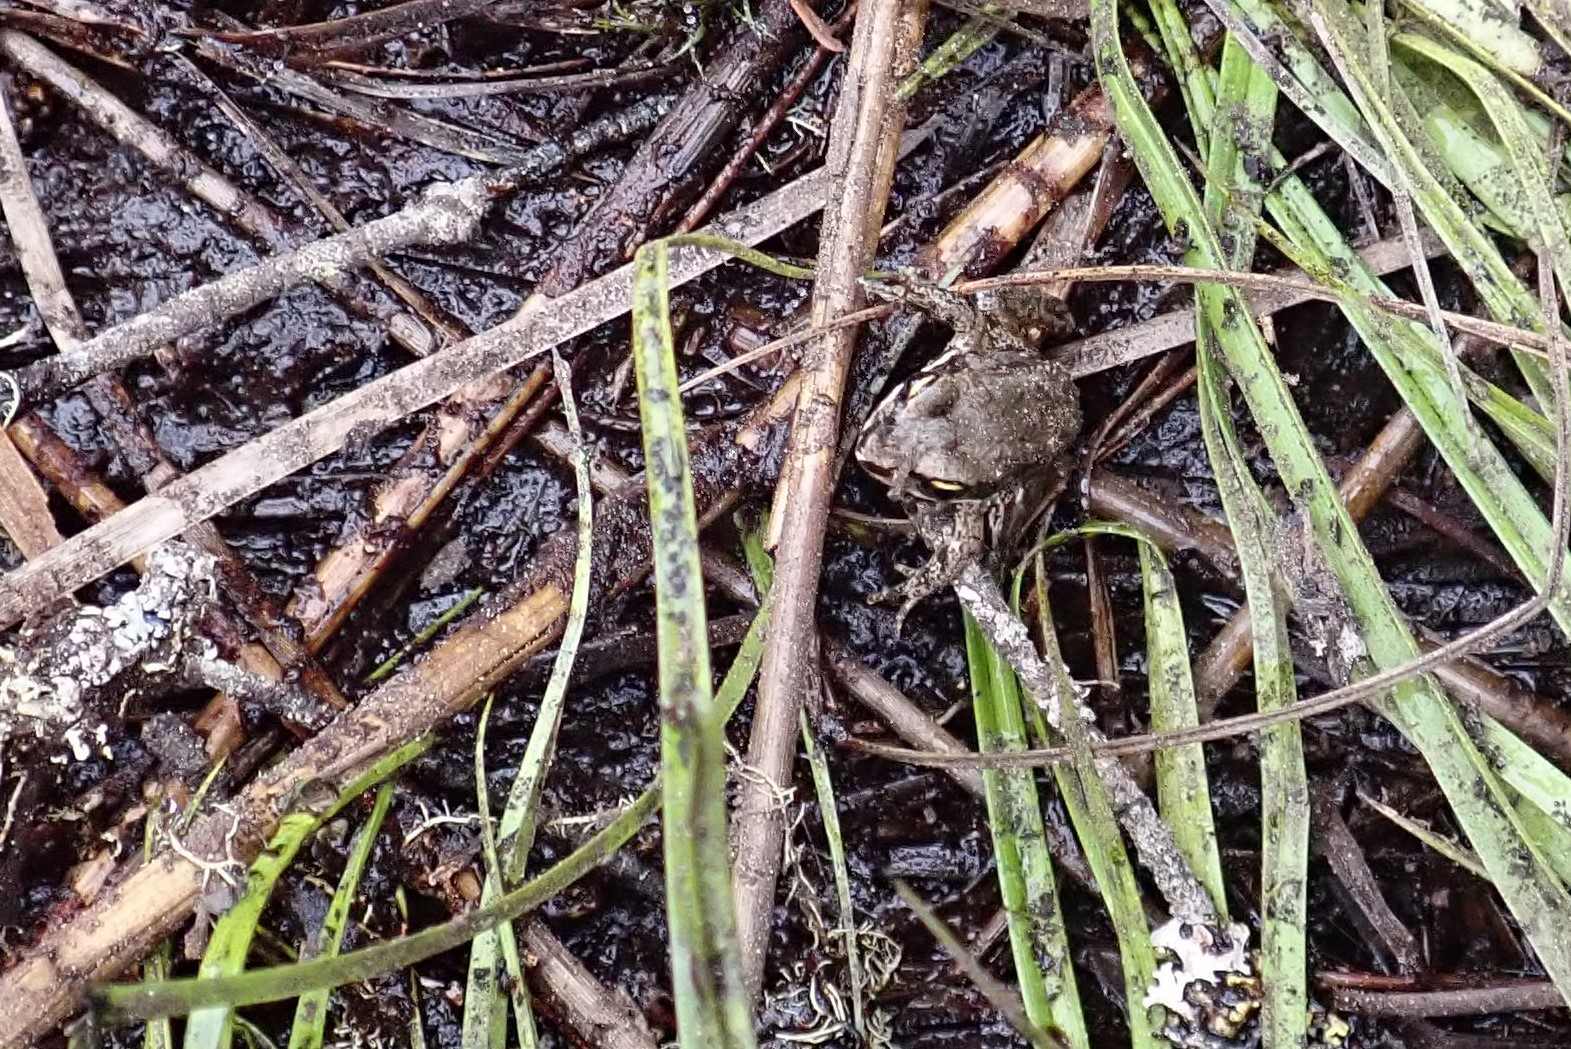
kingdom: Animalia
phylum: Chordata
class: Amphibia
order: Anura
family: Ranidae
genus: Lithobates
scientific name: Lithobates sylvaticus
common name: Wood frog
